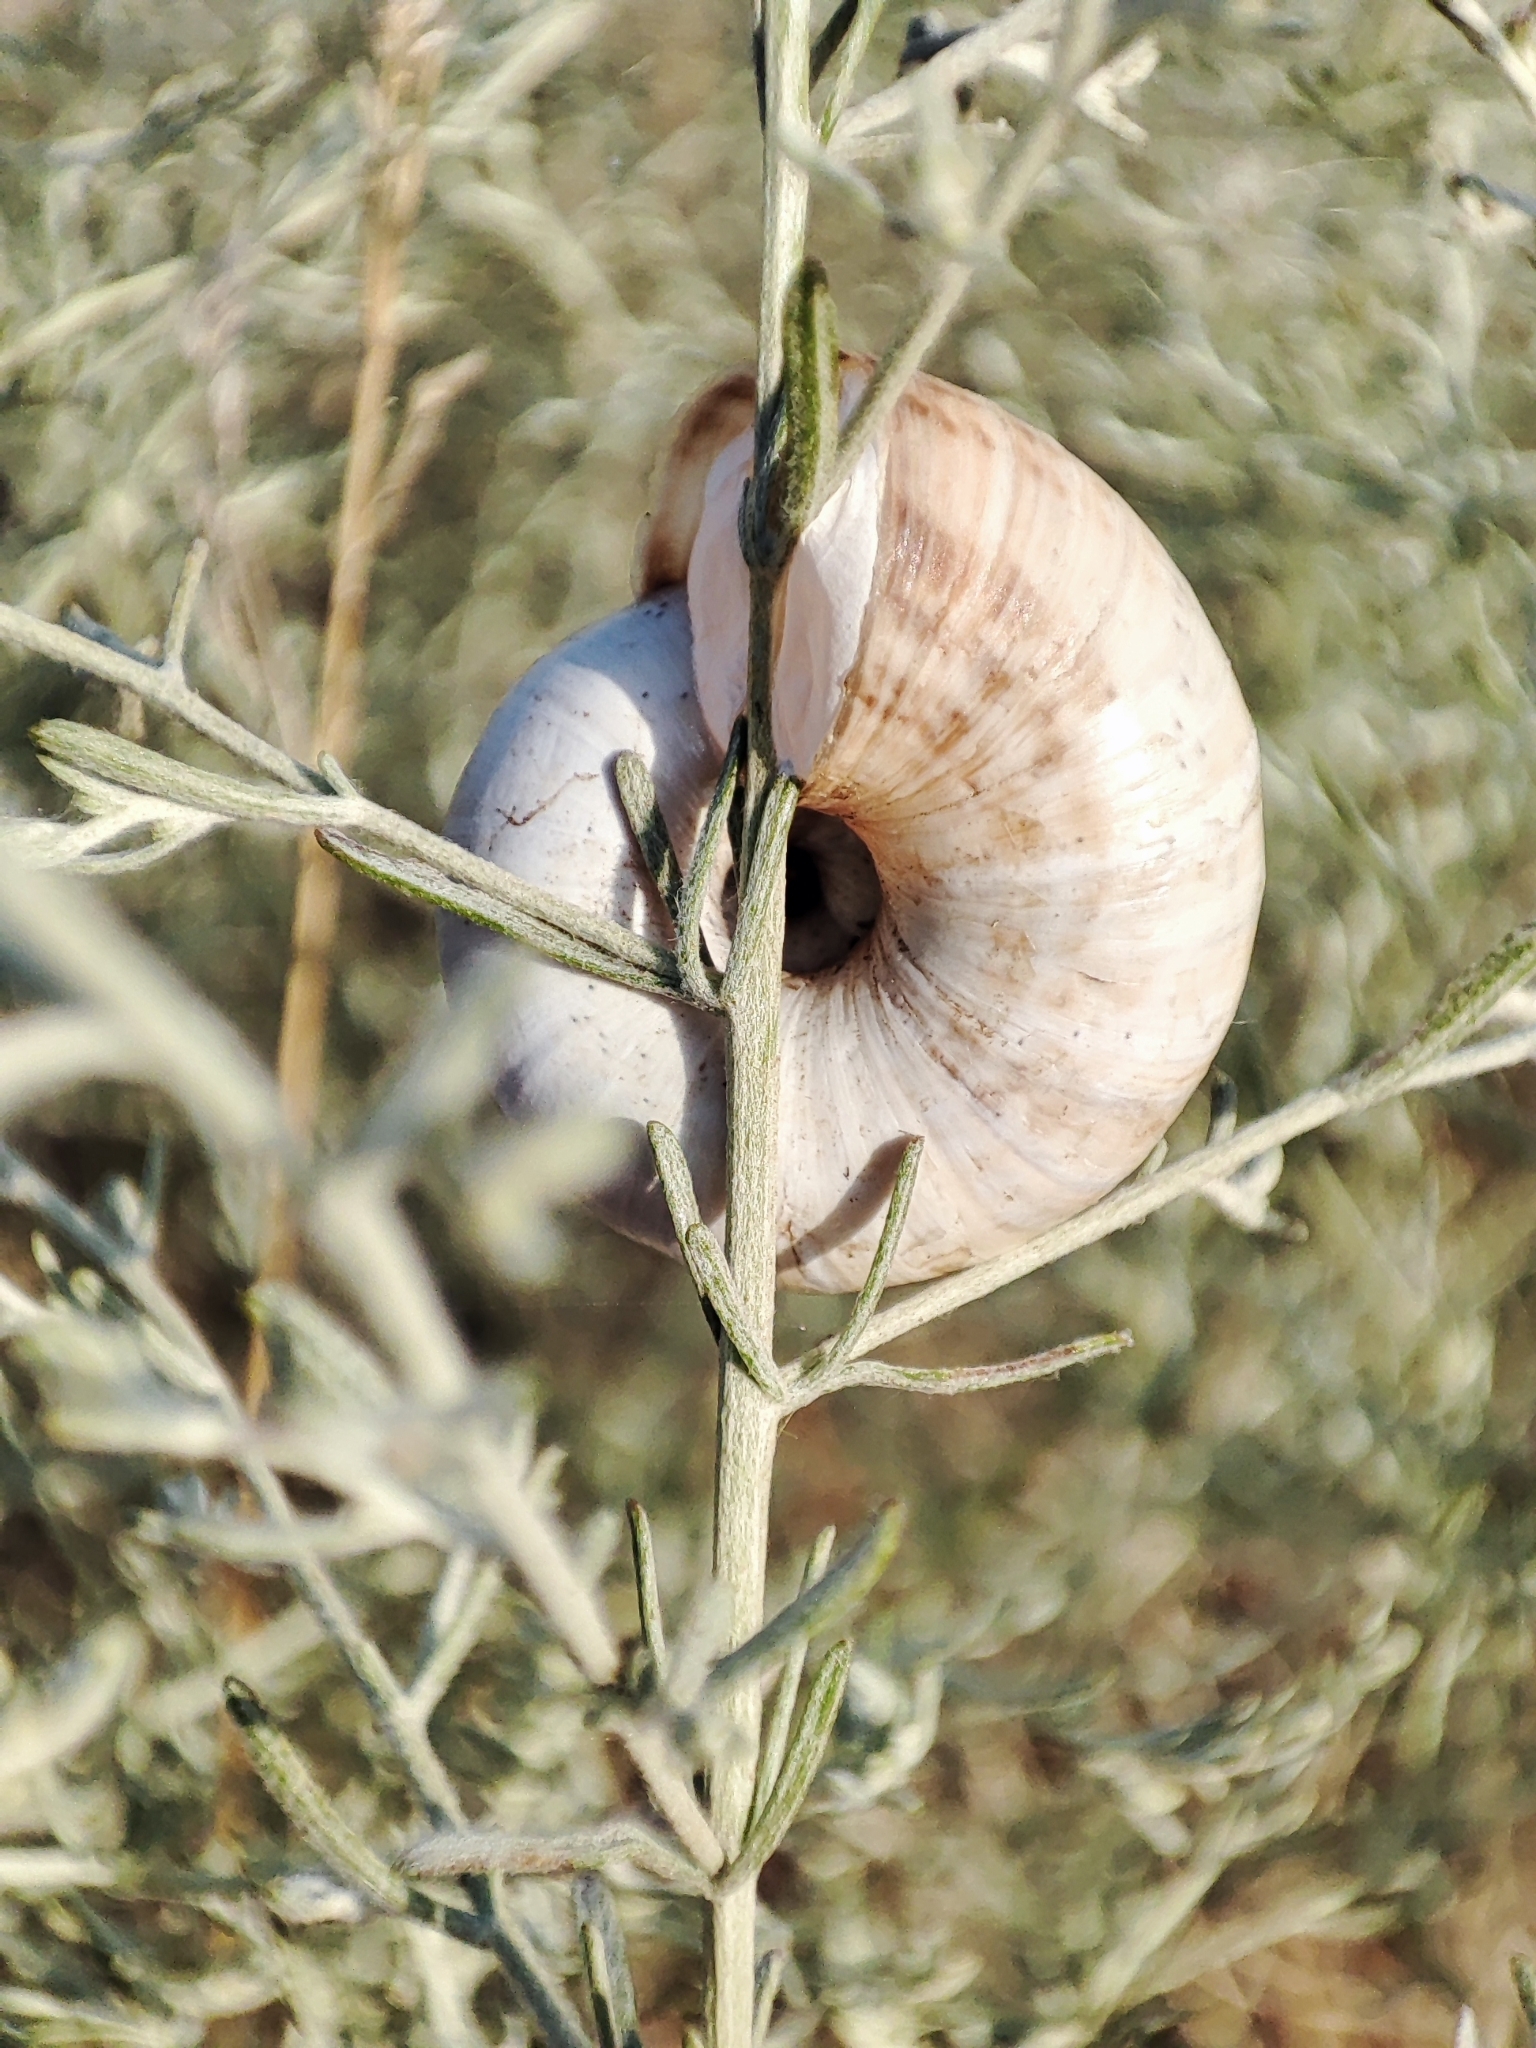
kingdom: Animalia
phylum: Mollusca
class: Gastropoda
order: Stylommatophora
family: Geomitridae
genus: Xeropicta
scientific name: Xeropicta derbentina
